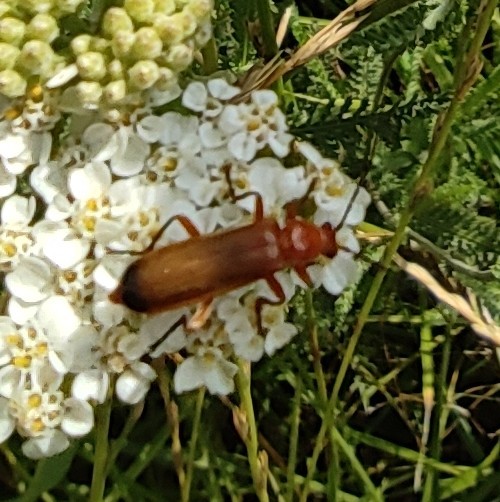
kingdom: Animalia
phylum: Arthropoda
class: Insecta
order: Coleoptera
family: Cantharidae
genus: Rhagonycha
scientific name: Rhagonycha fulva
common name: Common red soldier beetle
